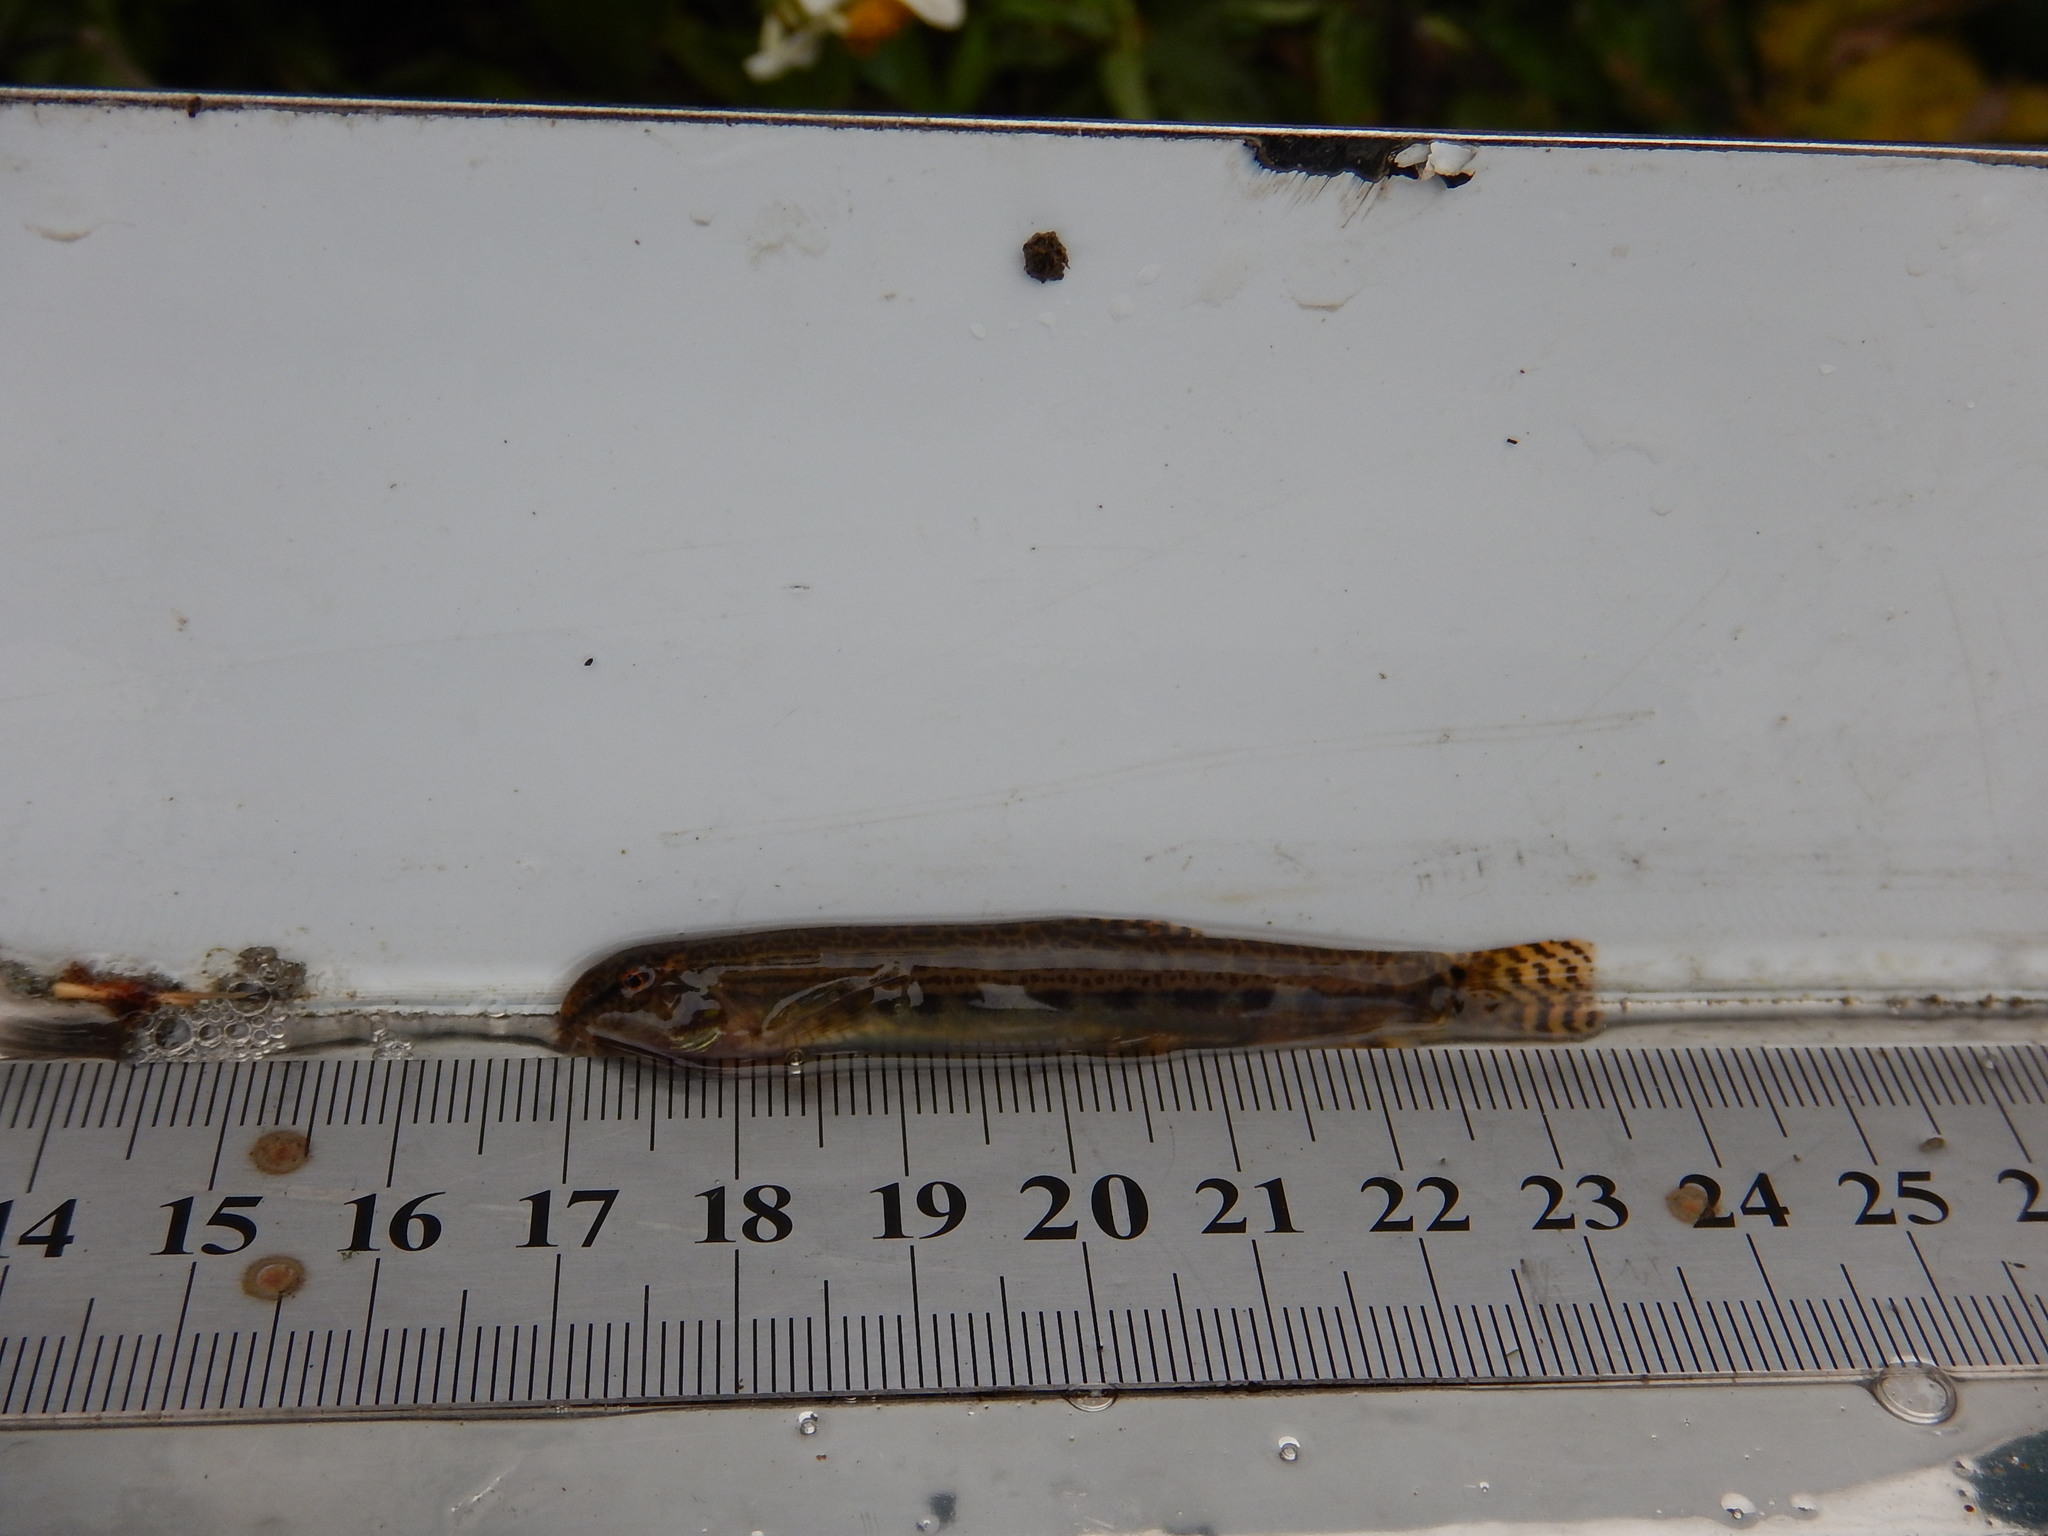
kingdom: Animalia
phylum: Chordata
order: Cypriniformes
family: Cobitidae
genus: Cobitis
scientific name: Cobitis sinensis
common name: Siberian spiny loach
